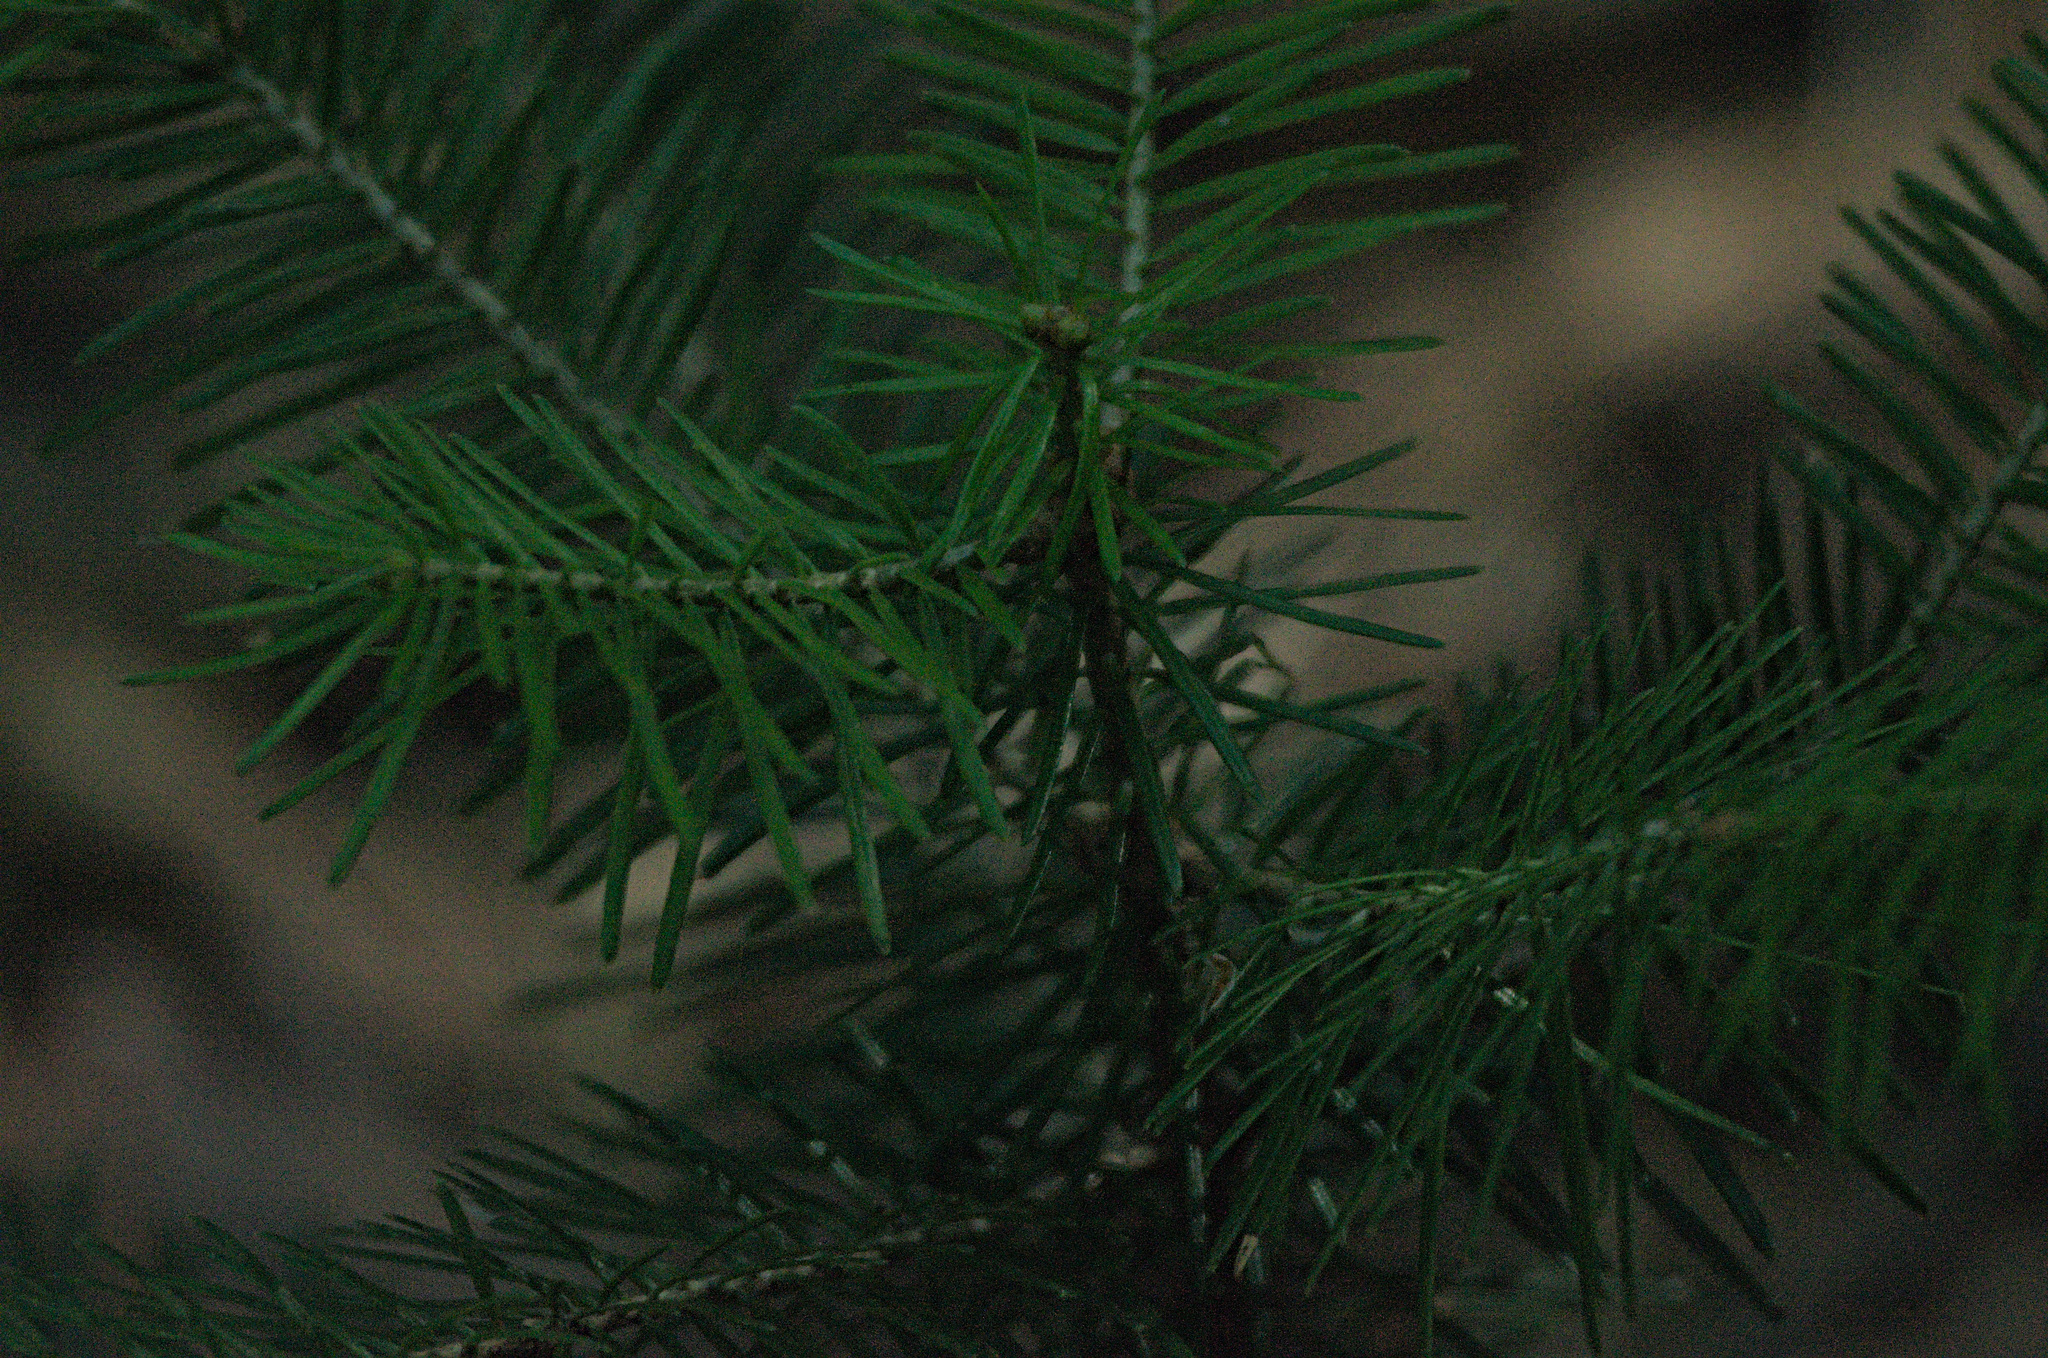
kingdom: Plantae
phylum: Tracheophyta
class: Pinopsida
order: Pinales
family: Pinaceae
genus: Abies
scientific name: Abies sibirica
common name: Siberian fir
